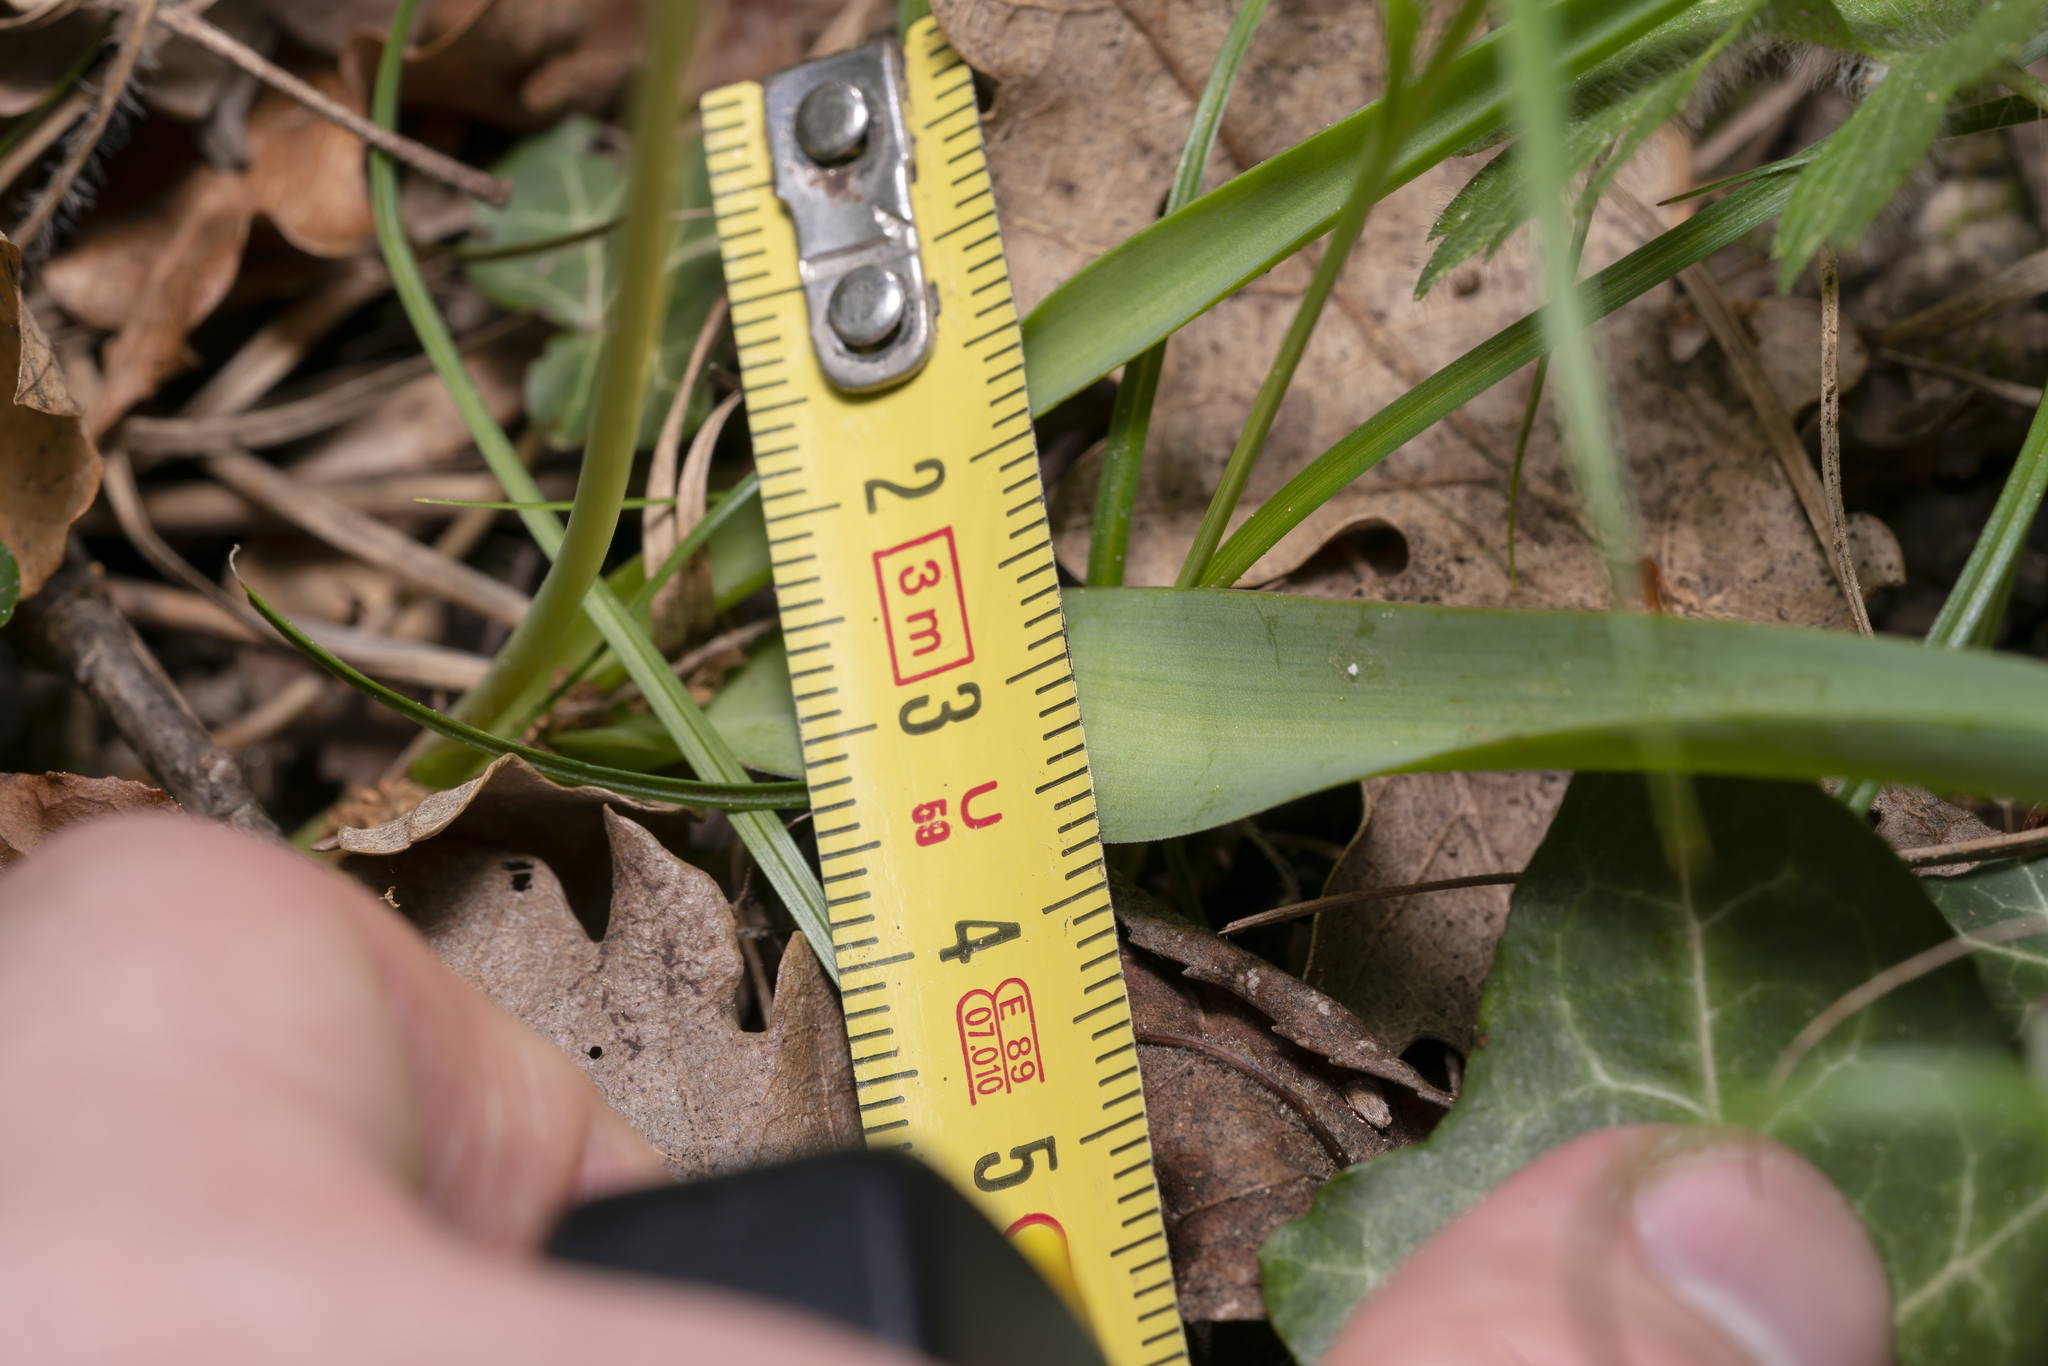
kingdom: Plantae
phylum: Tracheophyta
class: Liliopsida
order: Asparagales
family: Asparagaceae
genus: Muscari
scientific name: Muscari comosum
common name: Tassel hyacinth
